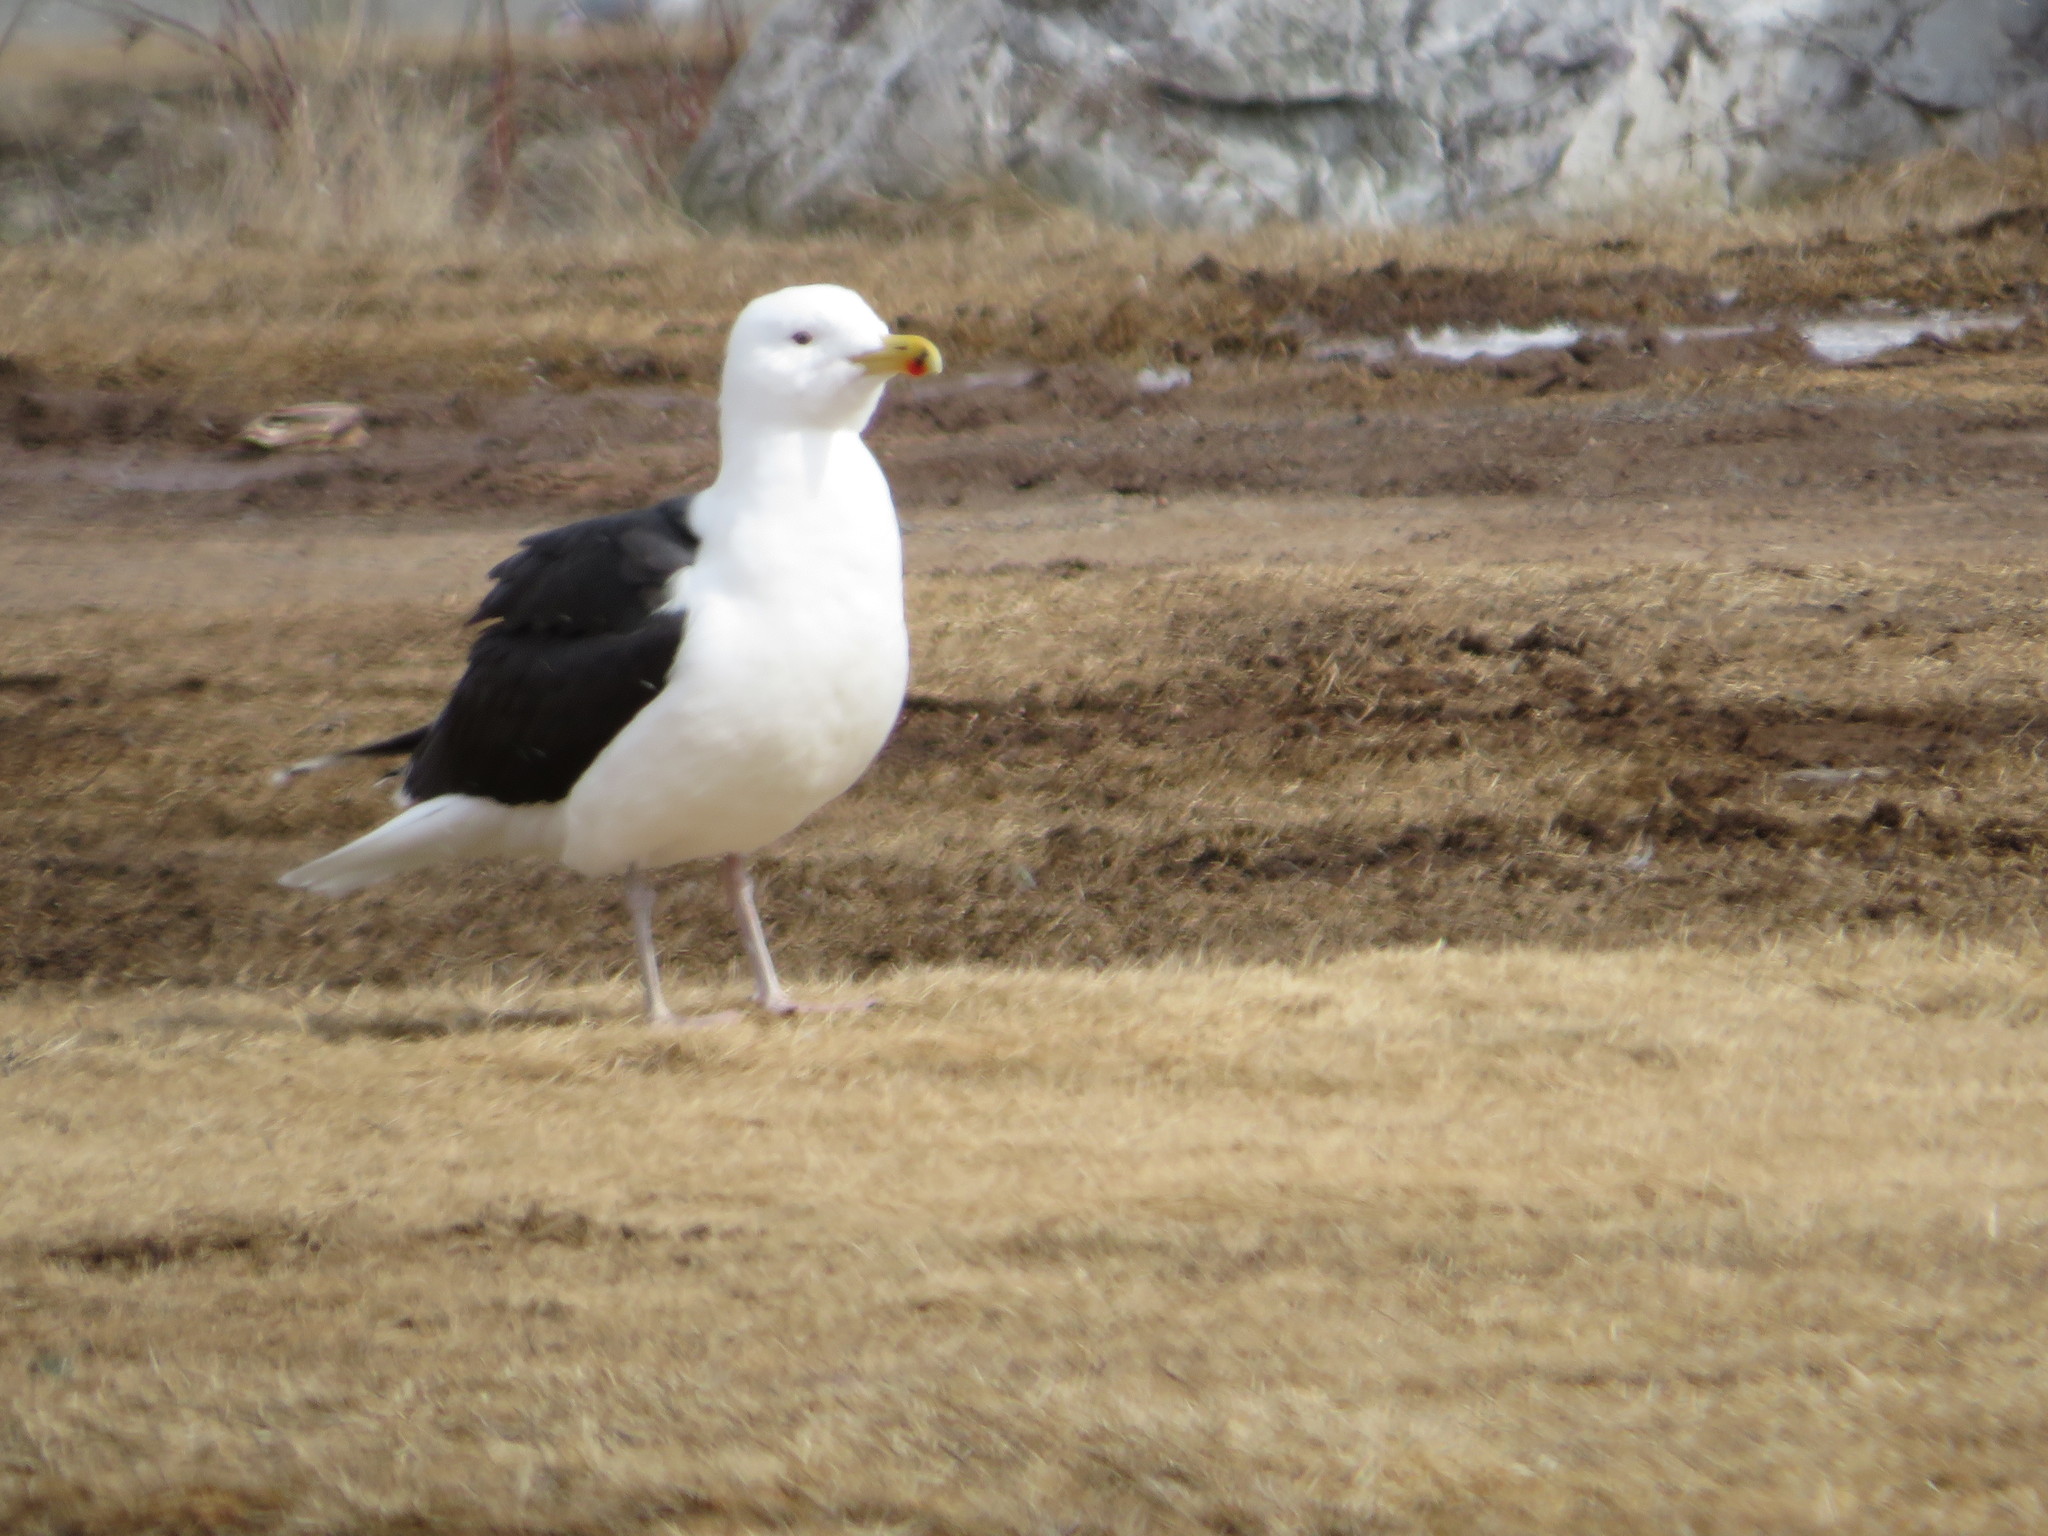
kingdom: Animalia
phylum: Chordata
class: Aves
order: Charadriiformes
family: Laridae
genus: Larus
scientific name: Larus marinus
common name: Great black-backed gull
